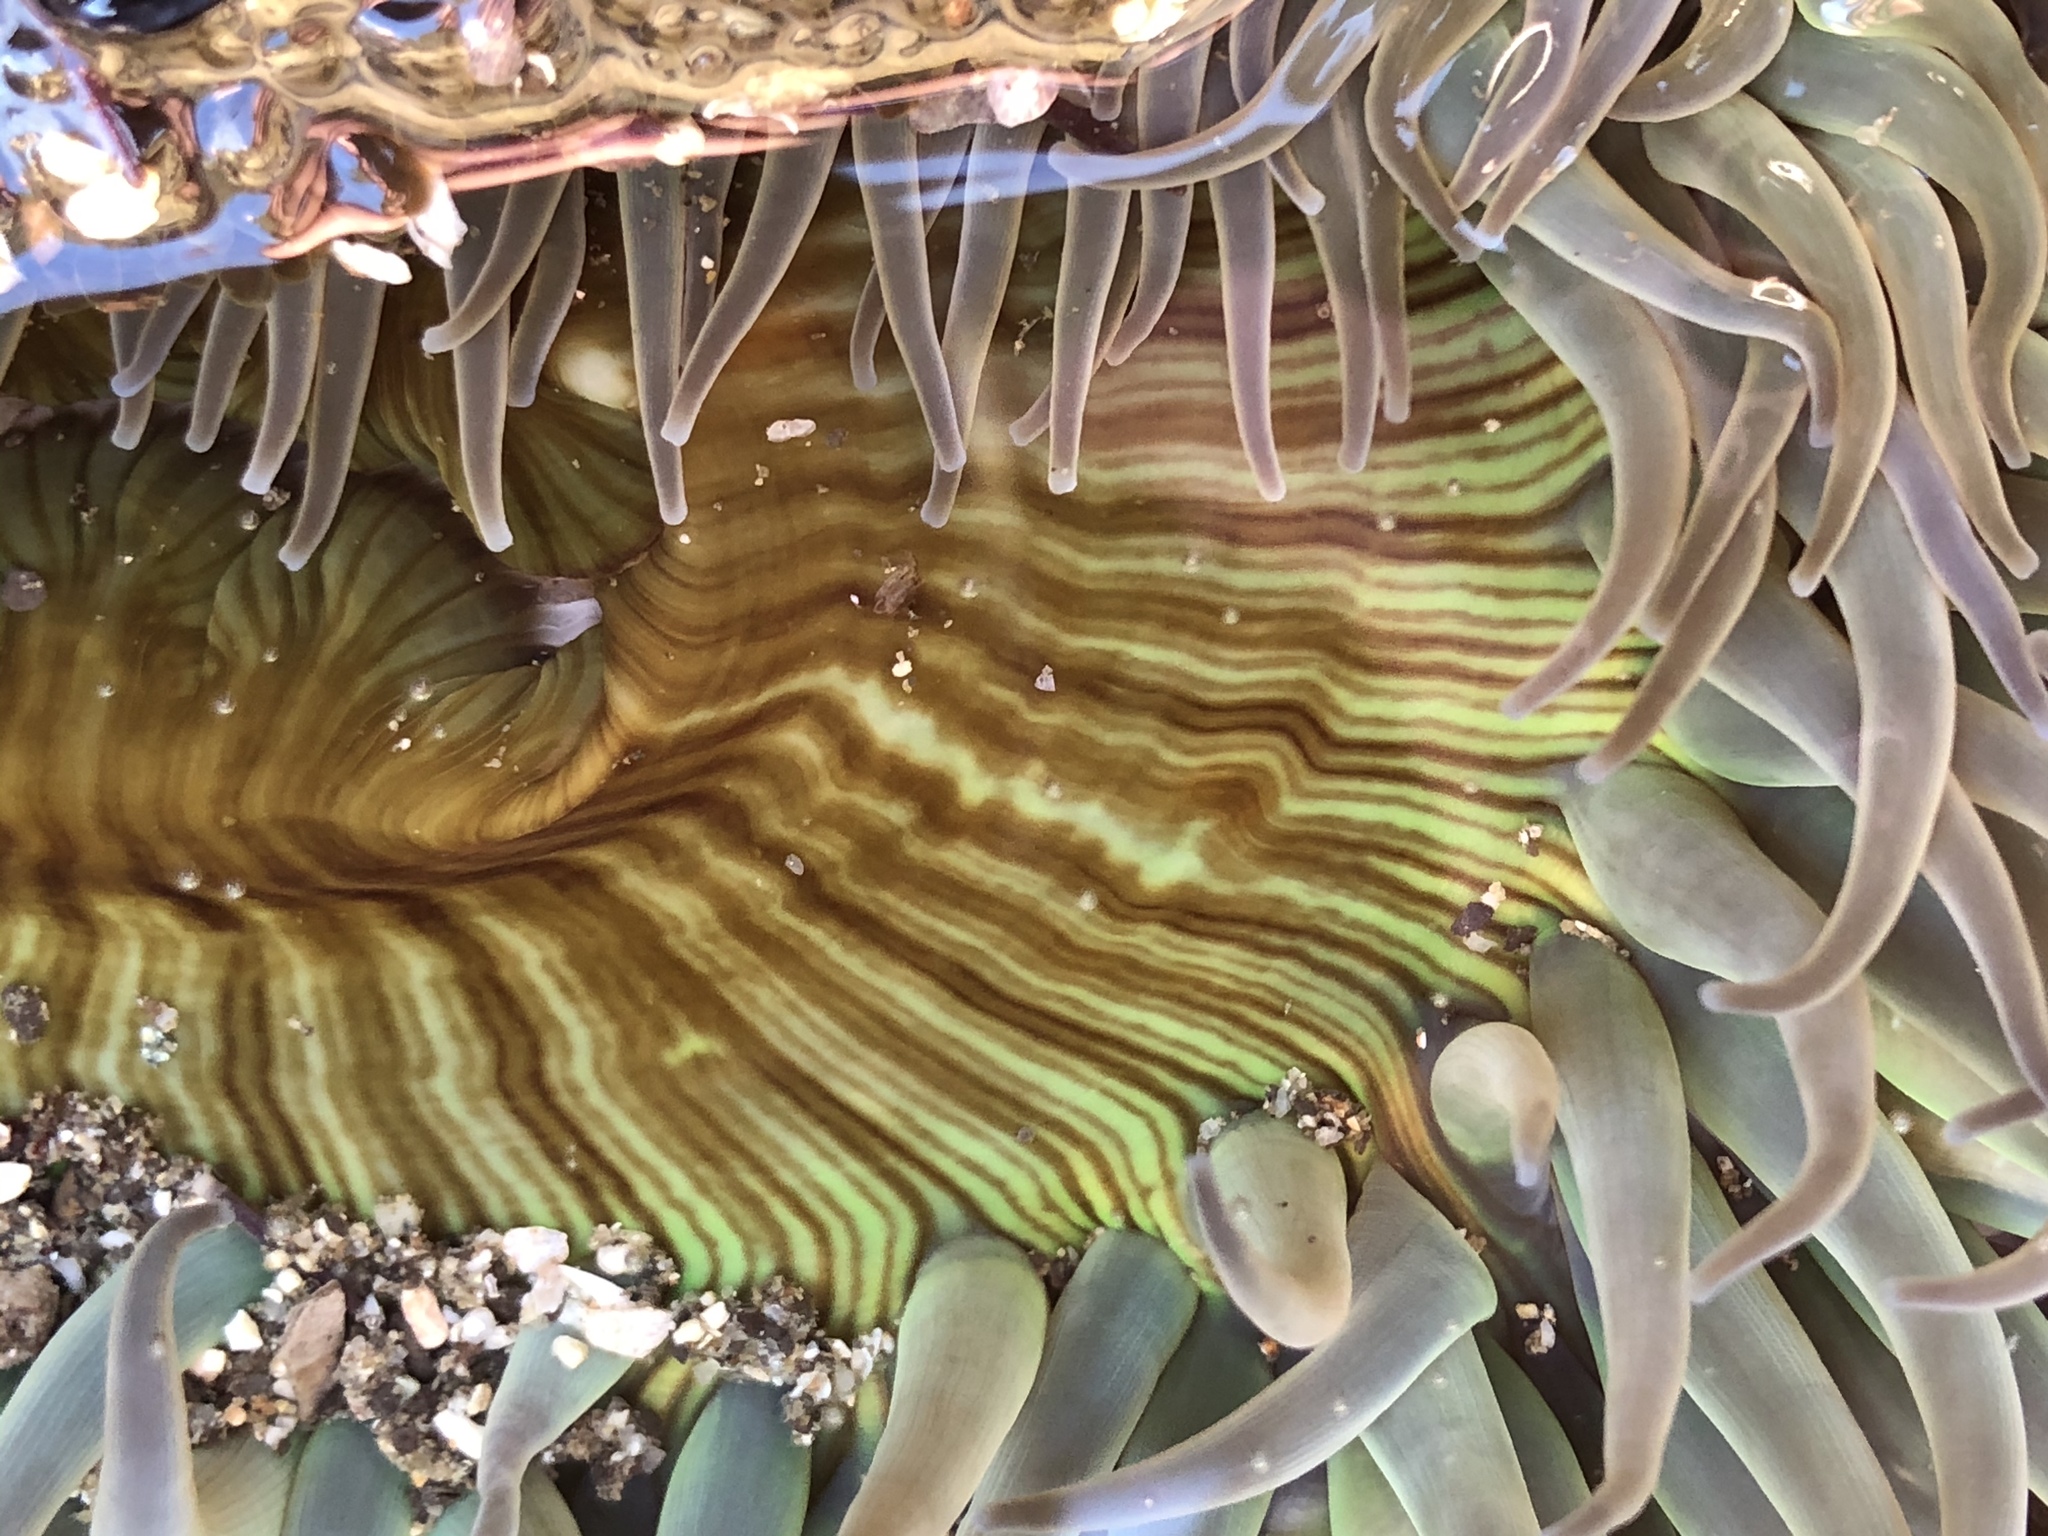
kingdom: Animalia
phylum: Cnidaria
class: Anthozoa
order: Actiniaria
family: Actiniidae
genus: Anthopleura
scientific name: Anthopleura sola
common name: Sun anemone
